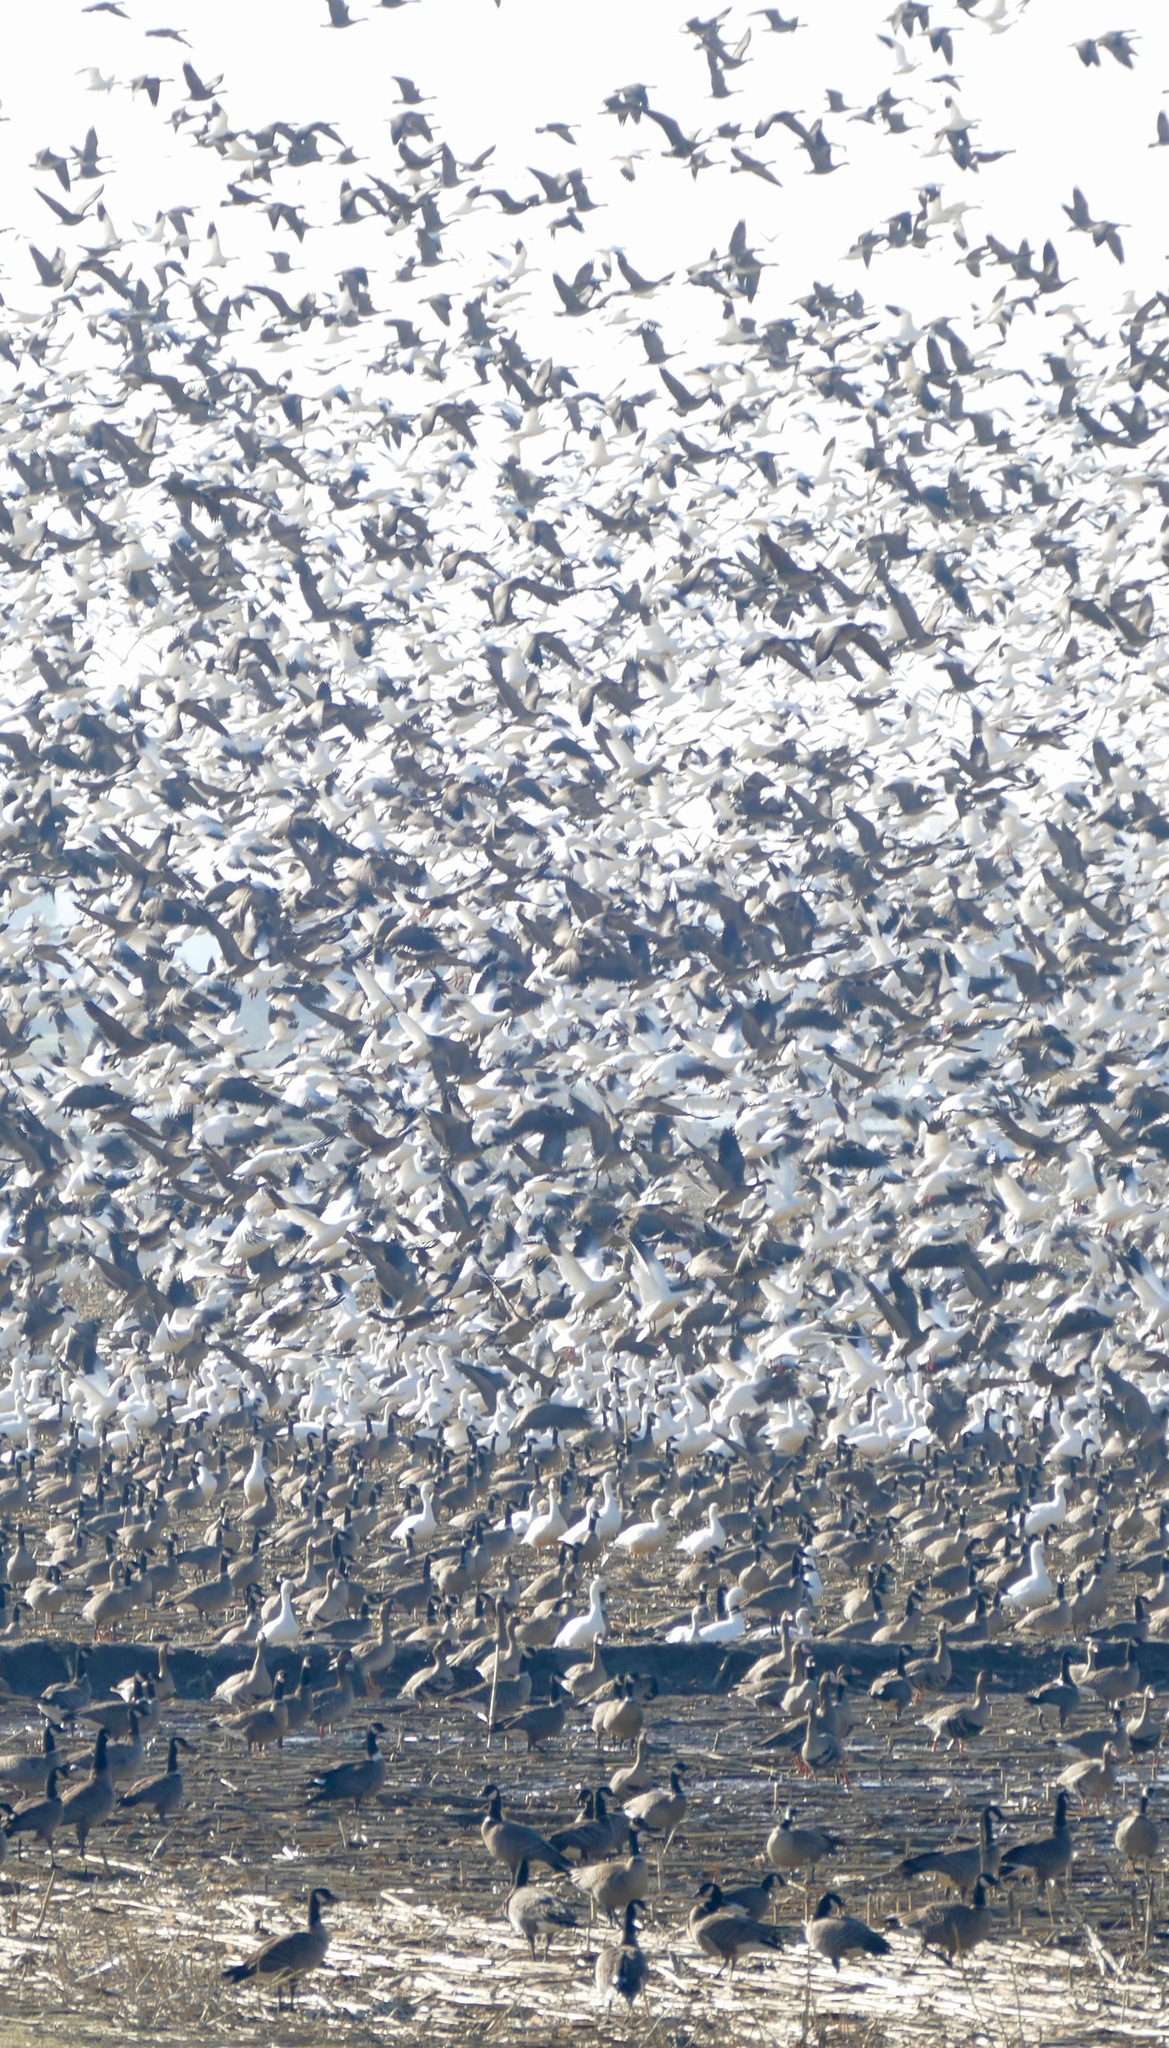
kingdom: Animalia
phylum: Chordata
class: Aves
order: Anseriformes
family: Anatidae
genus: Branta
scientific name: Branta hutchinsii
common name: Cackling goose
